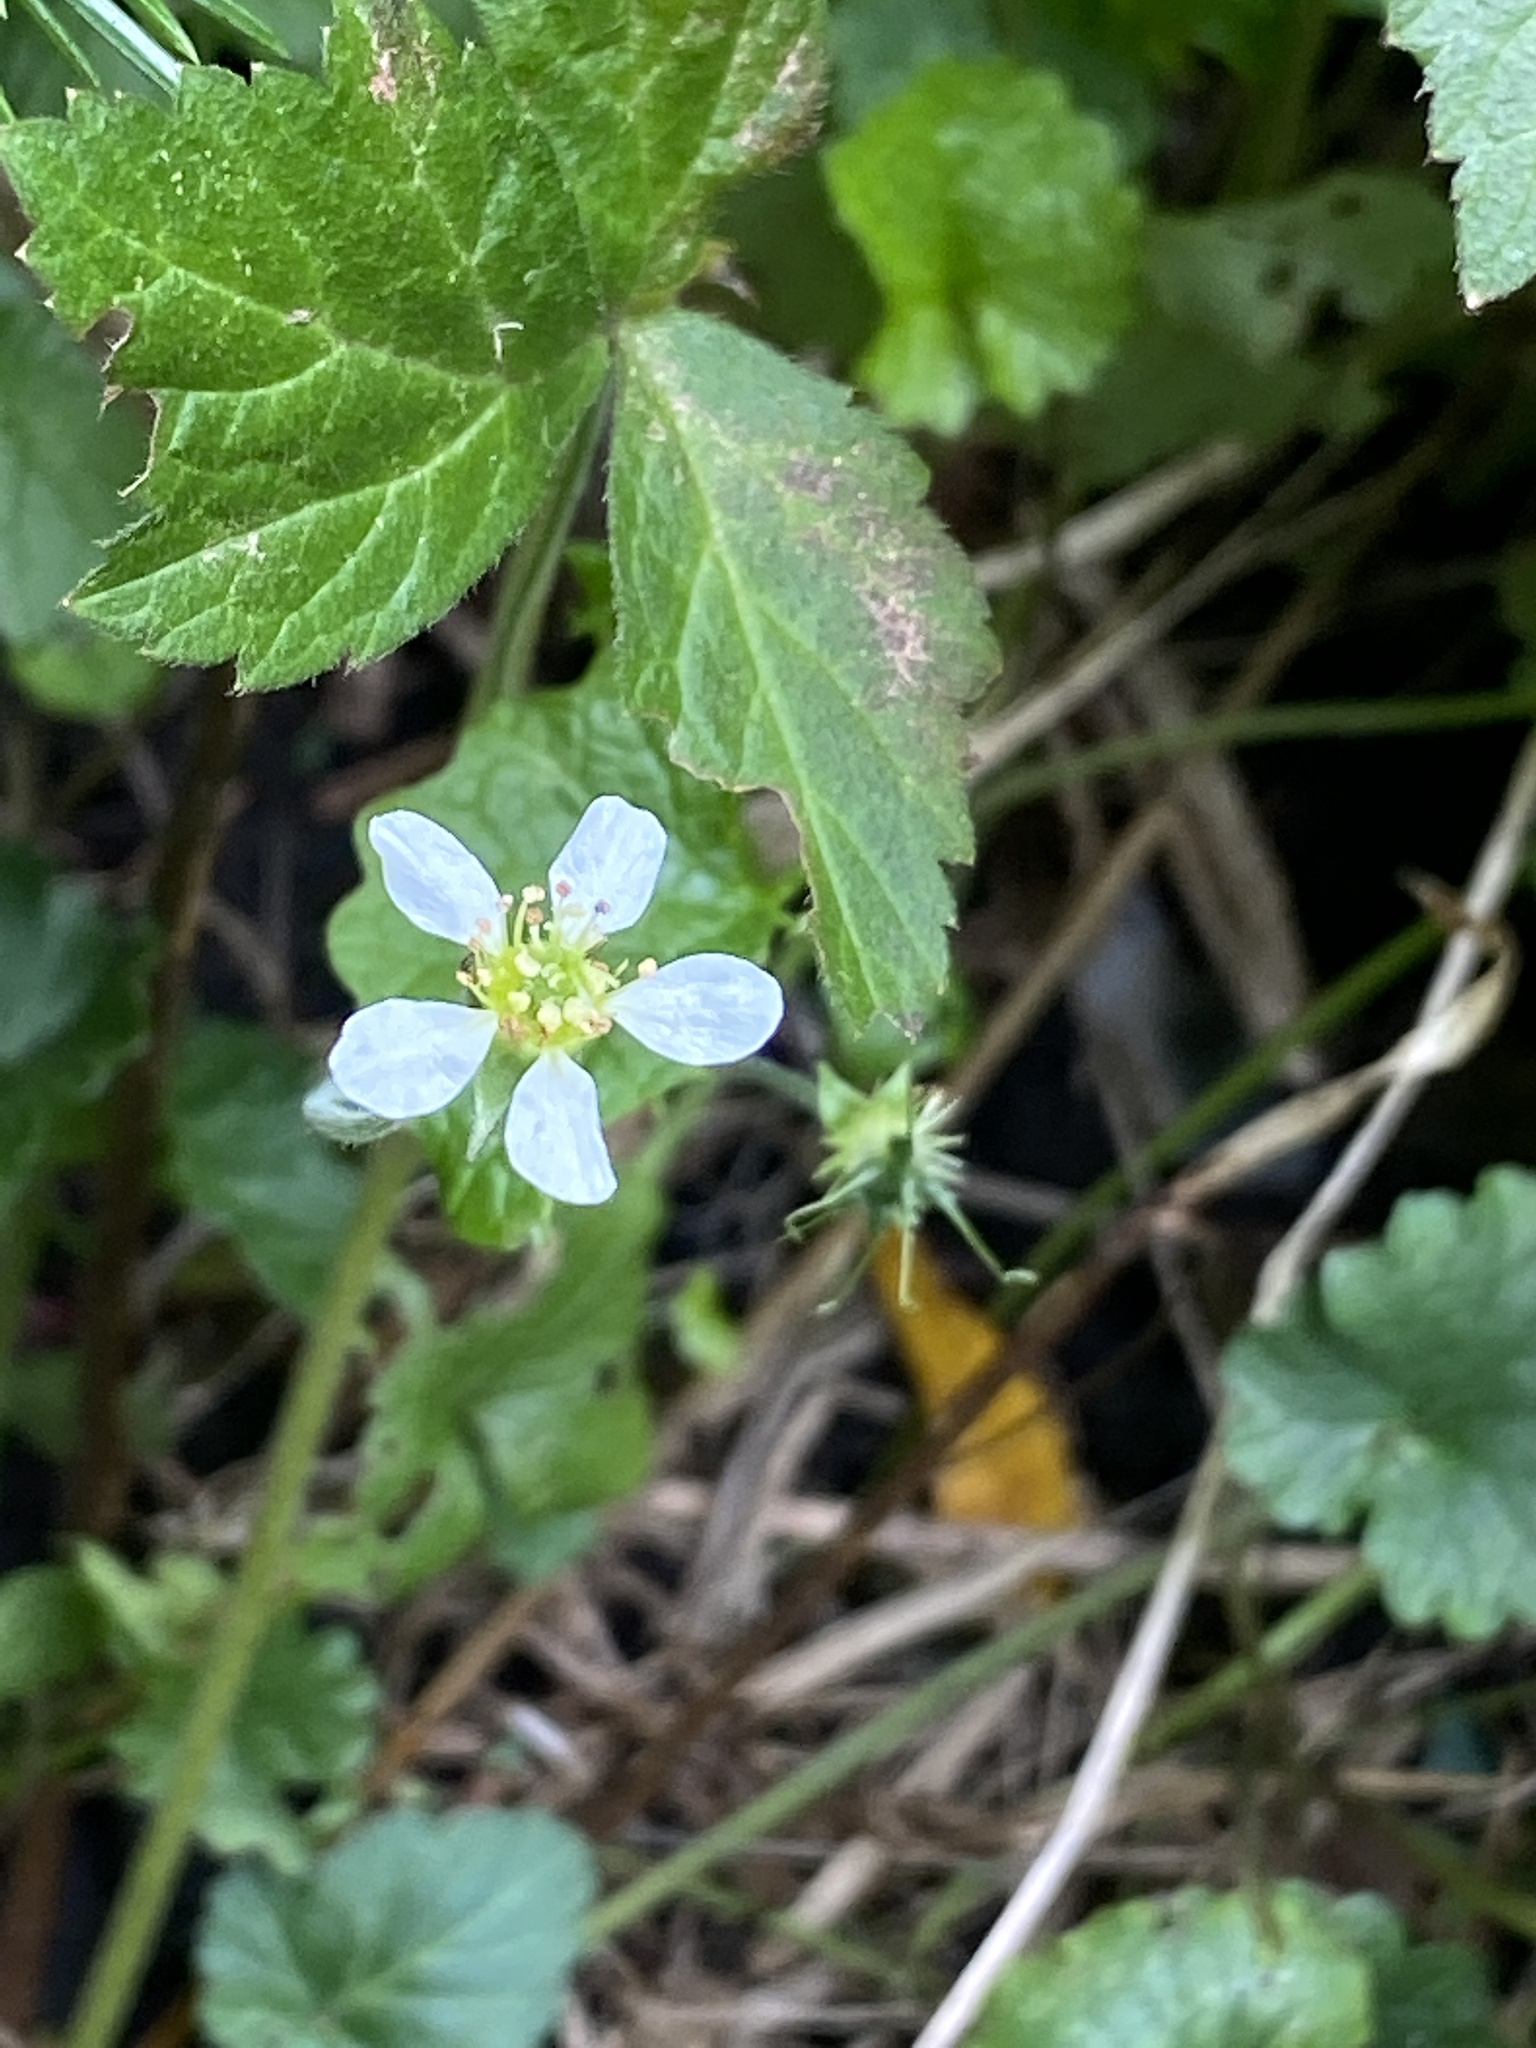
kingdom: Plantae
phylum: Tracheophyta
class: Magnoliopsida
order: Rosales
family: Rosaceae
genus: Geum
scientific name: Geum canadense
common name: White avens
